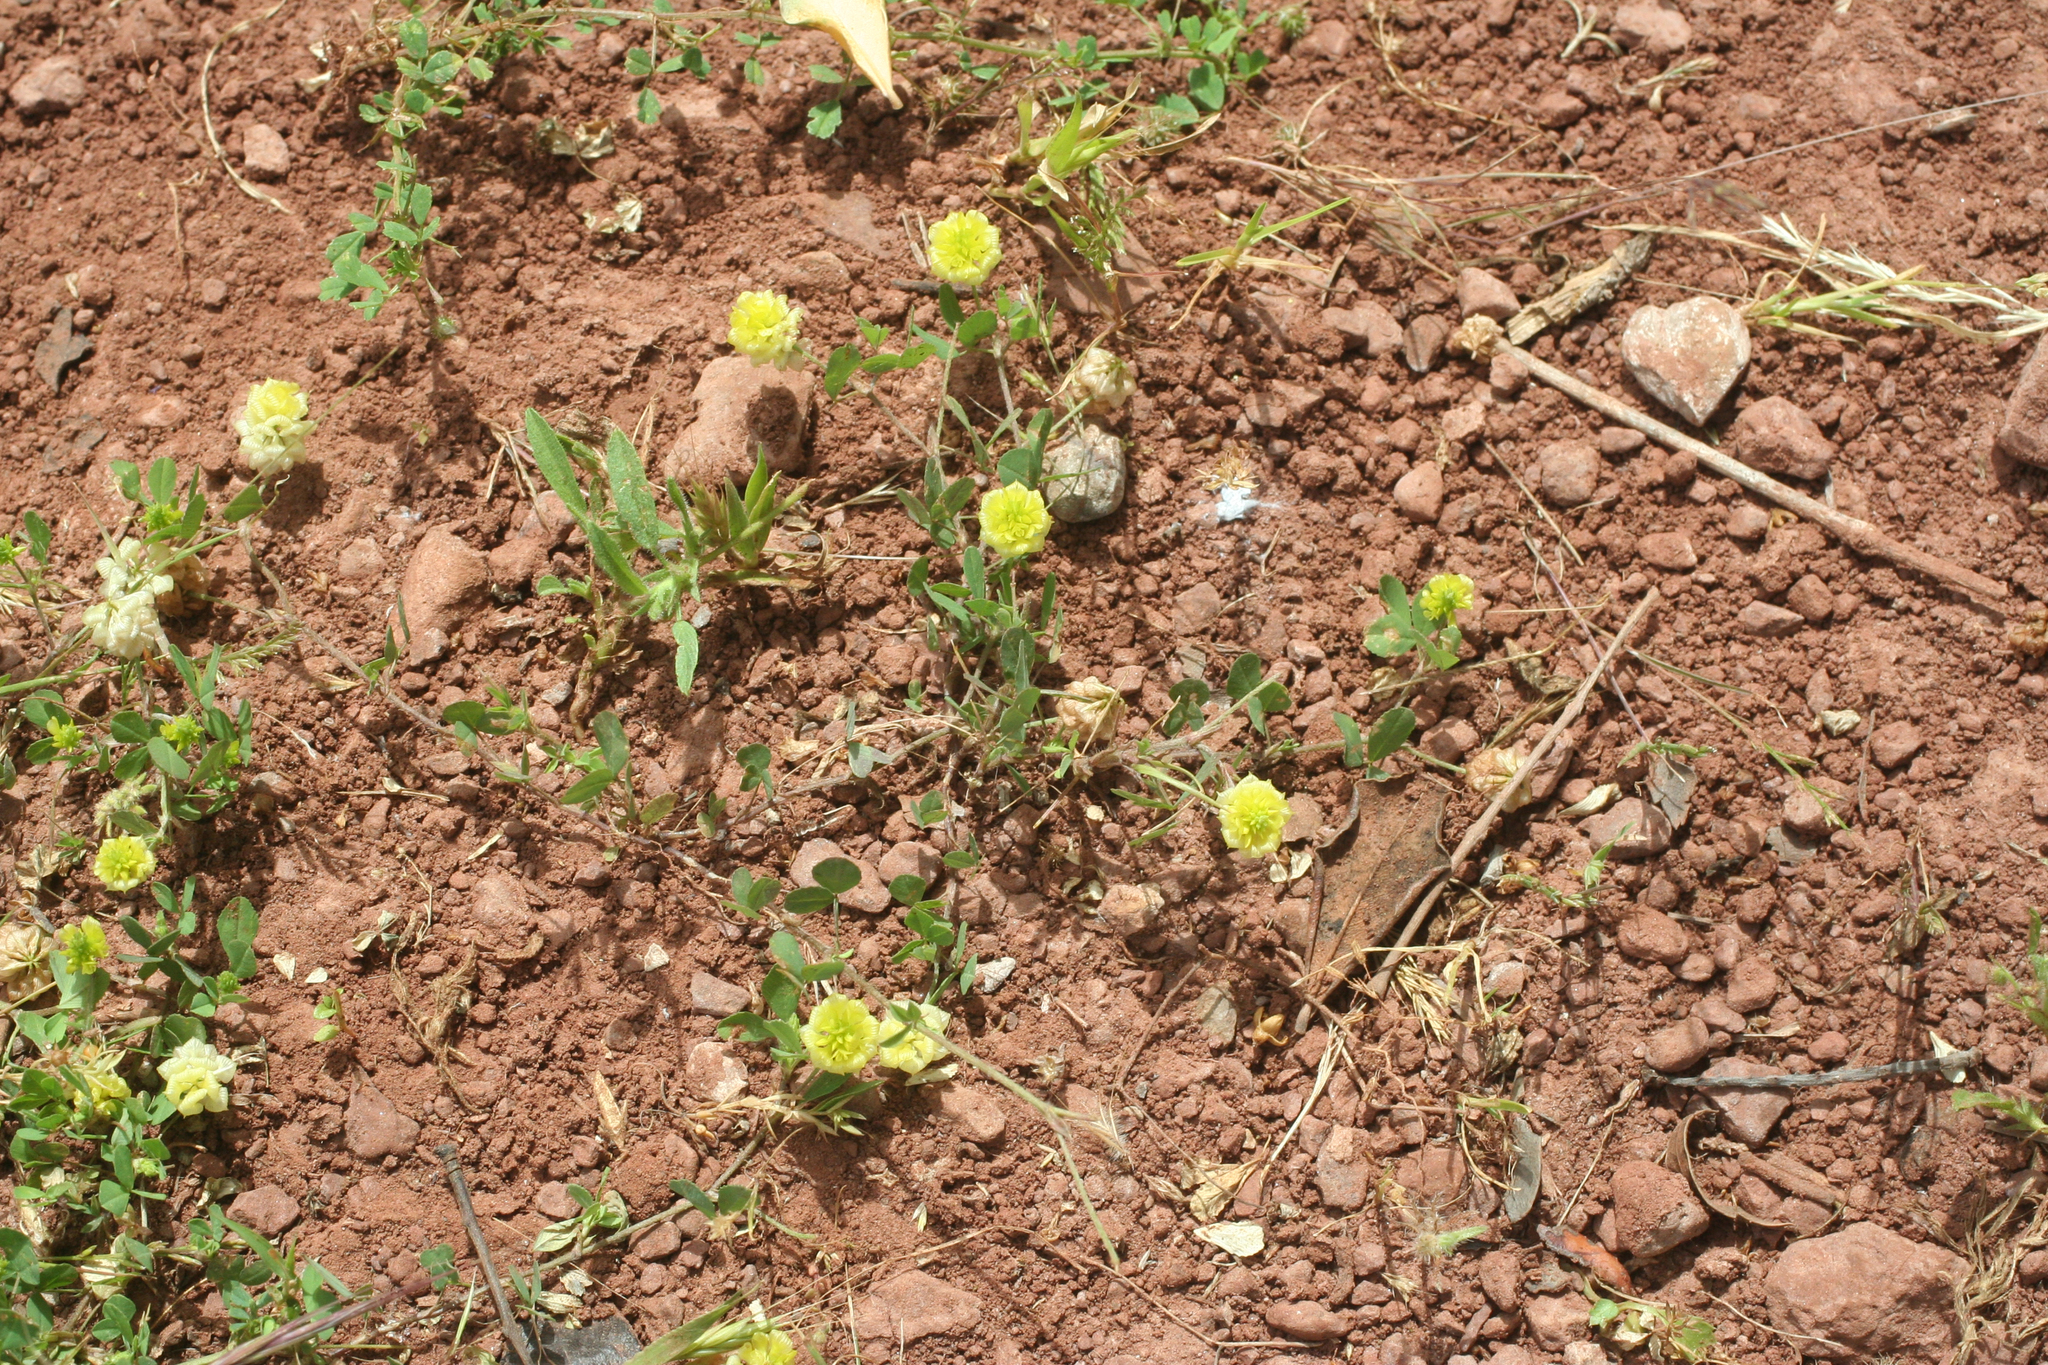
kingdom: Plantae
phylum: Tracheophyta
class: Magnoliopsida
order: Fabales
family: Fabaceae
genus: Trifolium
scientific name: Trifolium campestre
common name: Field clover
